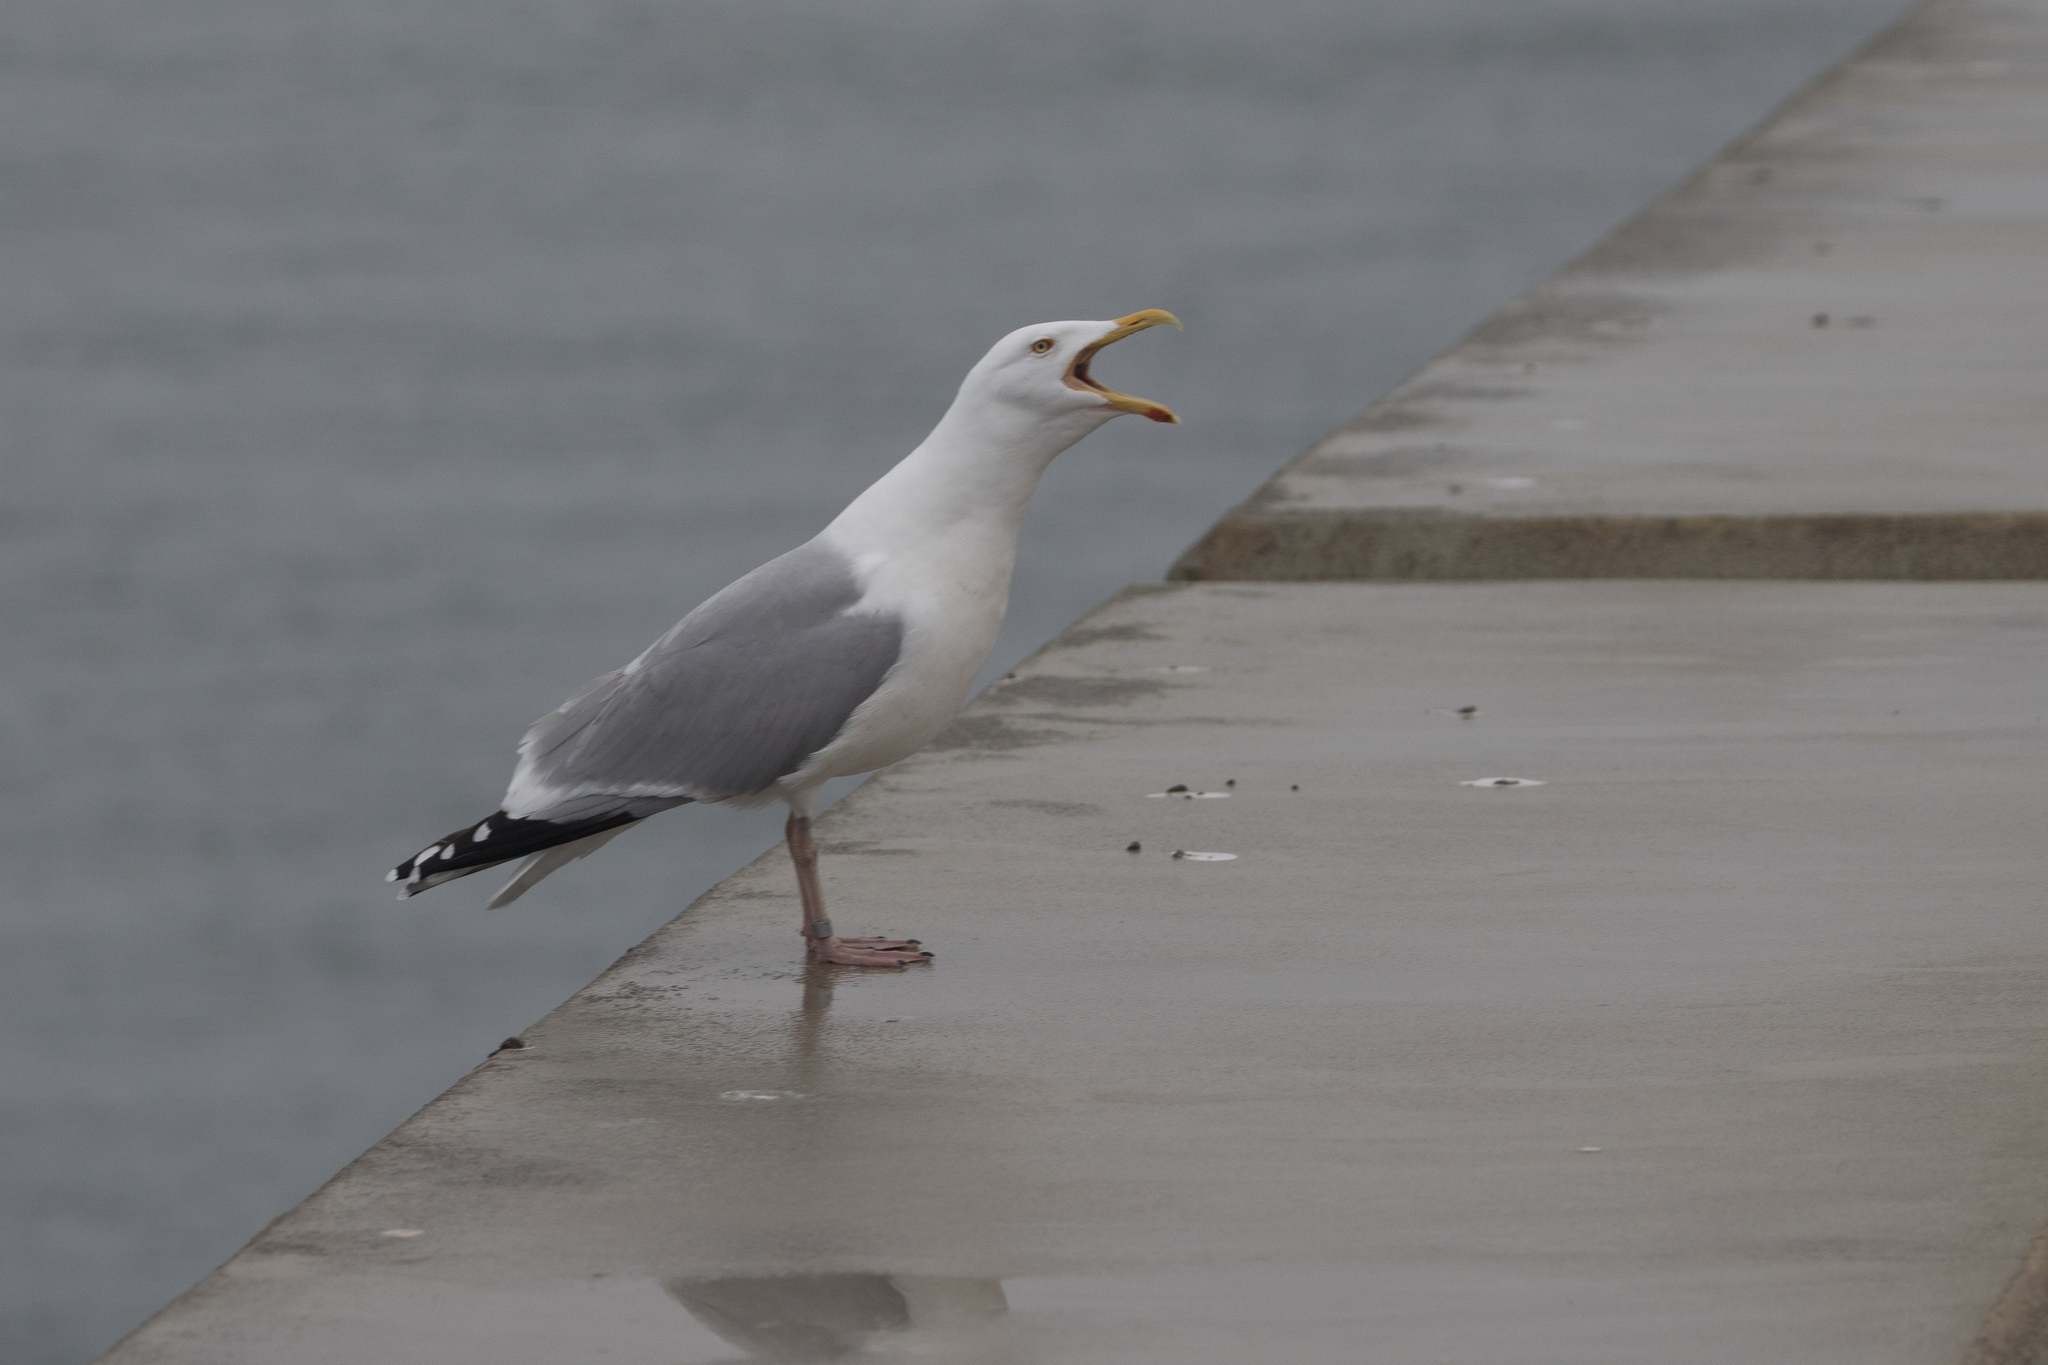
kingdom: Animalia
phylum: Chordata
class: Aves
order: Charadriiformes
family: Laridae
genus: Larus
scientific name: Larus argentatus
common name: Herring gull
